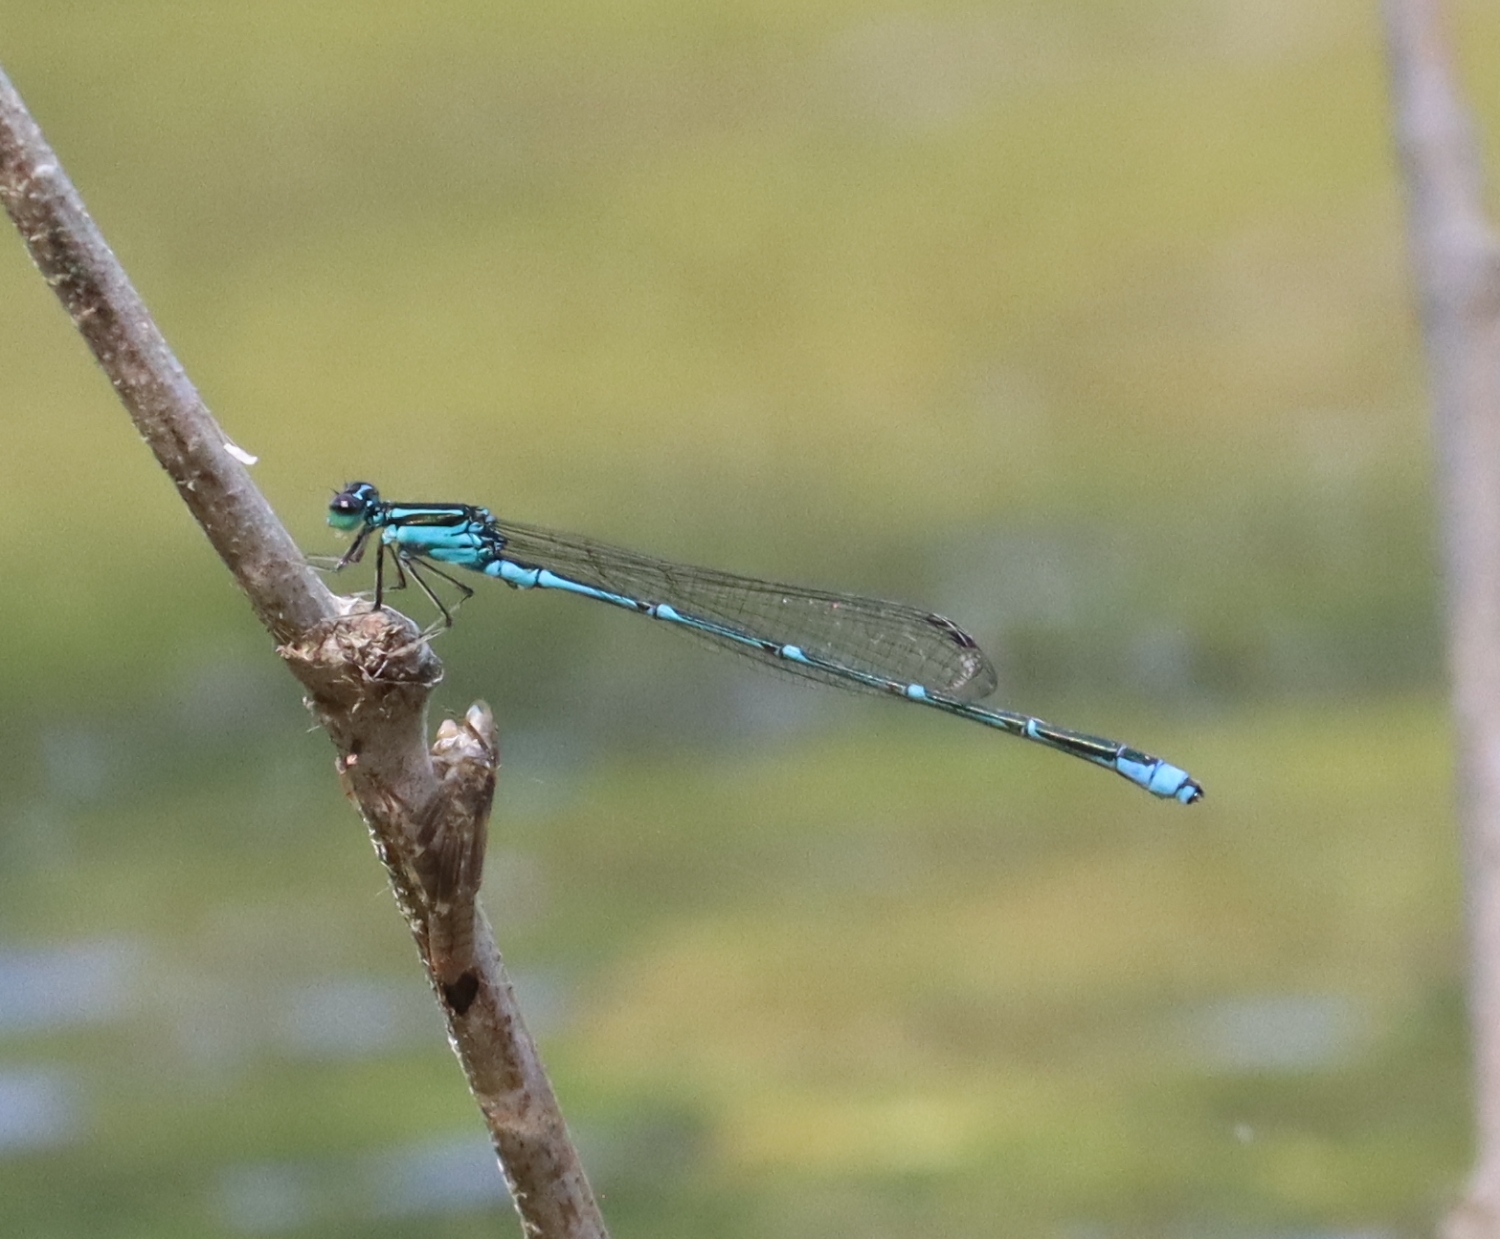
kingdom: Animalia
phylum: Arthropoda
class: Insecta
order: Odonata
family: Coenagrionidae
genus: Enallagma
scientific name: Enallagma exsulans
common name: Stream bluet
